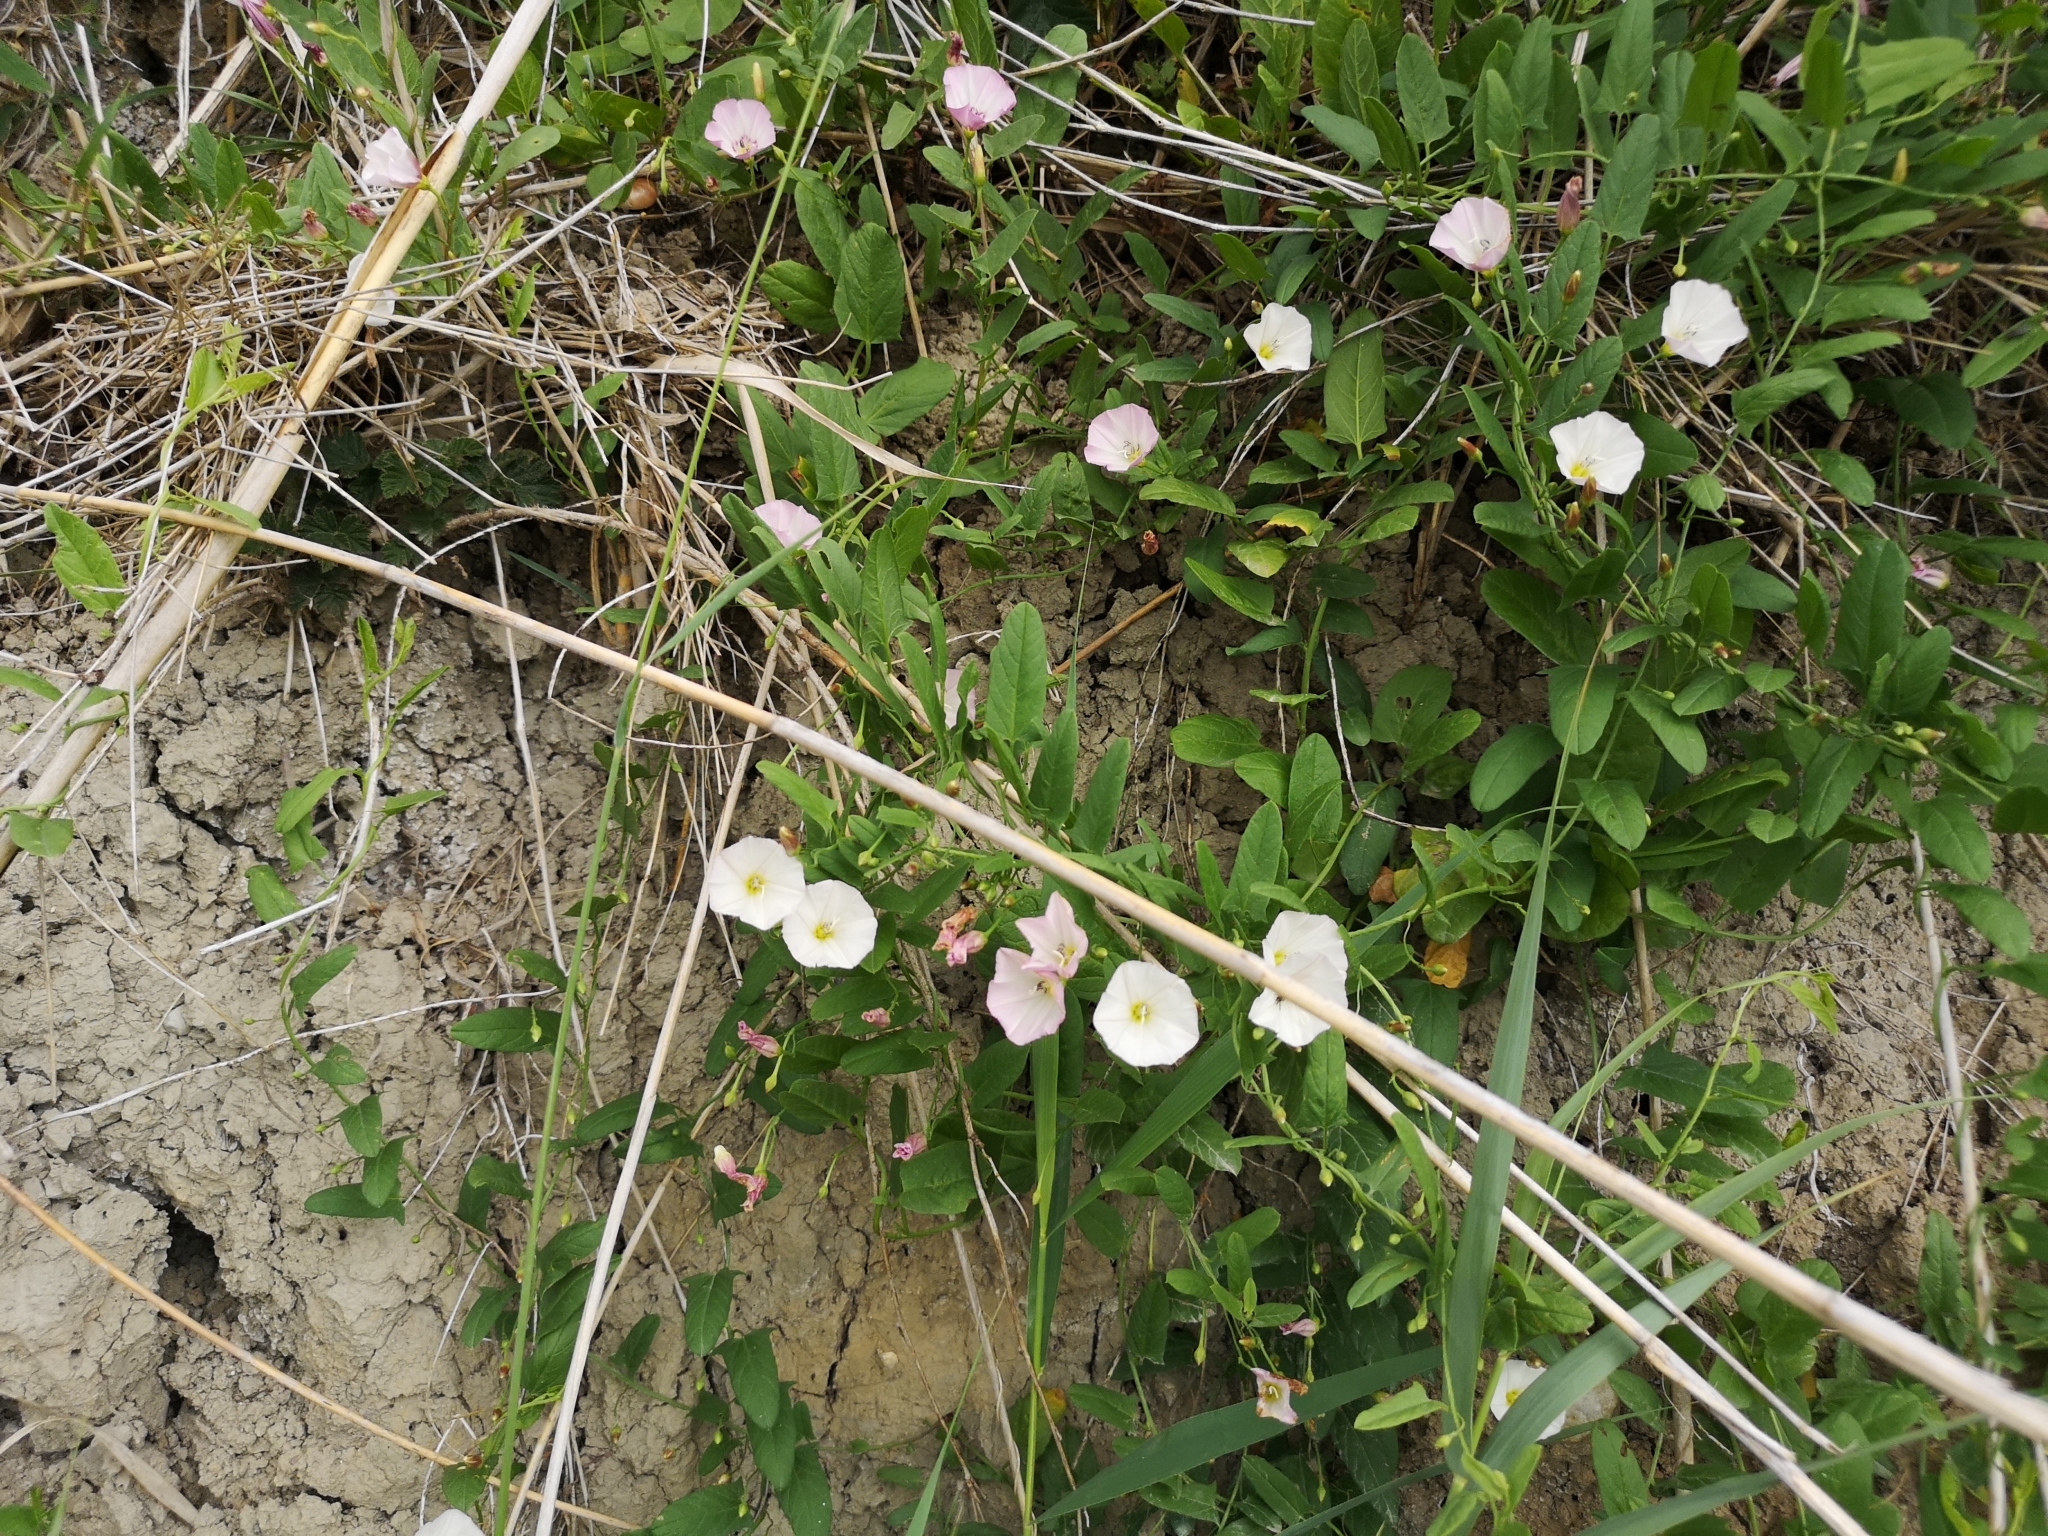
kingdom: Plantae
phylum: Tracheophyta
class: Magnoliopsida
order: Solanales
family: Convolvulaceae
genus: Convolvulus
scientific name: Convolvulus arvensis
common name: Field bindweed
